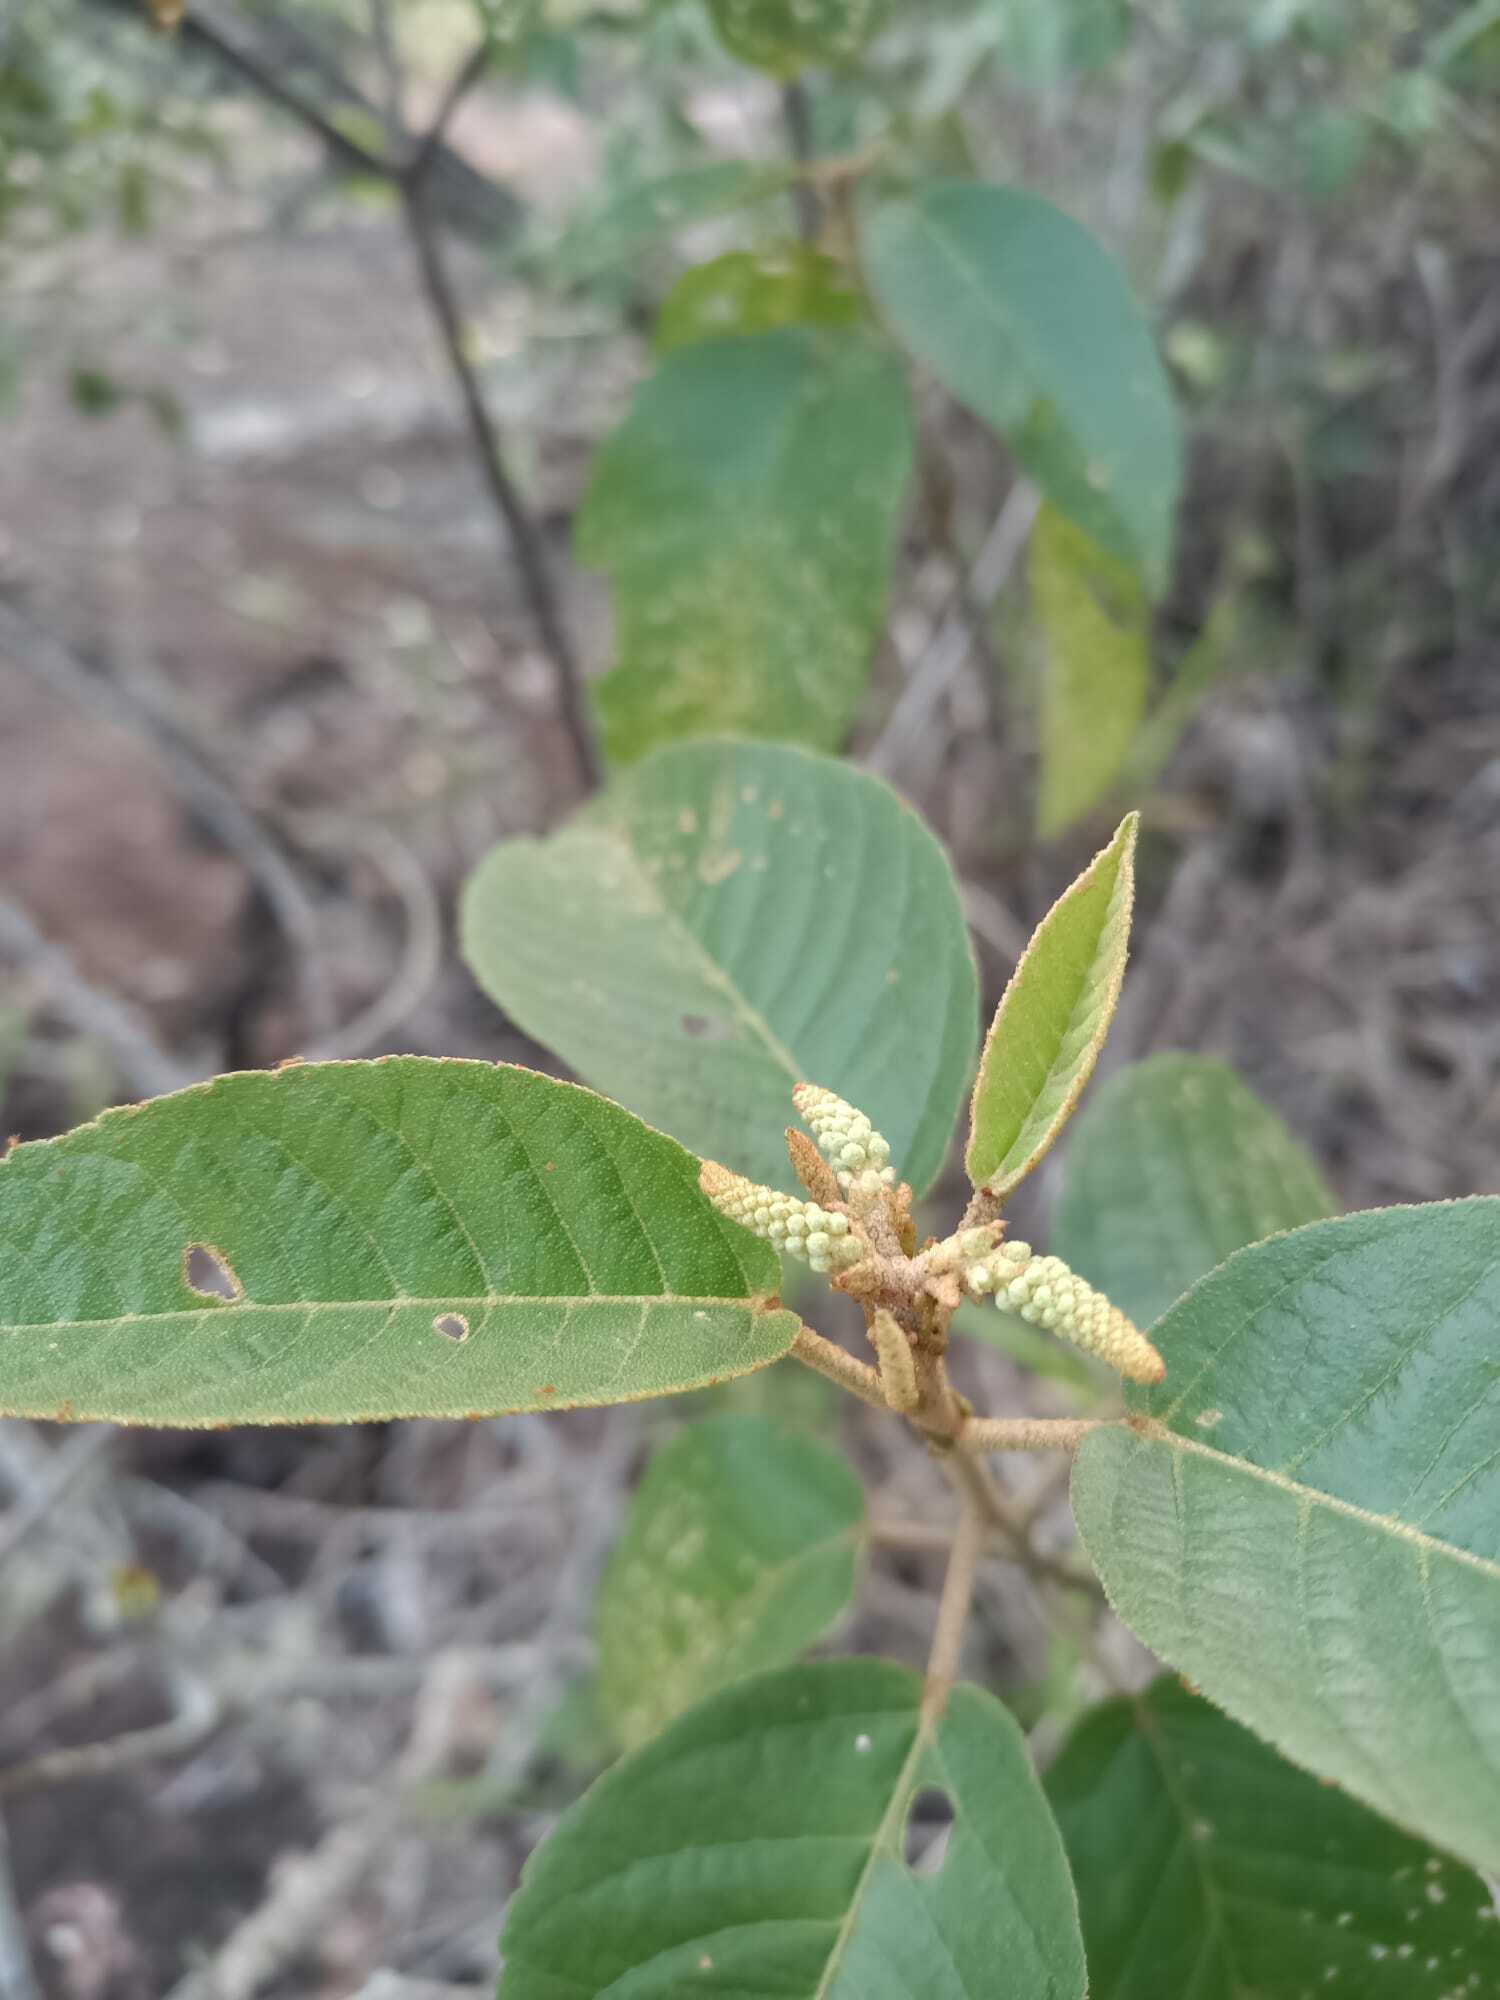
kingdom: Plantae
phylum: Tracheophyta
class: Magnoliopsida
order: Malpighiales
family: Euphorbiaceae
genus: Croton
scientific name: Croton hostmannii
